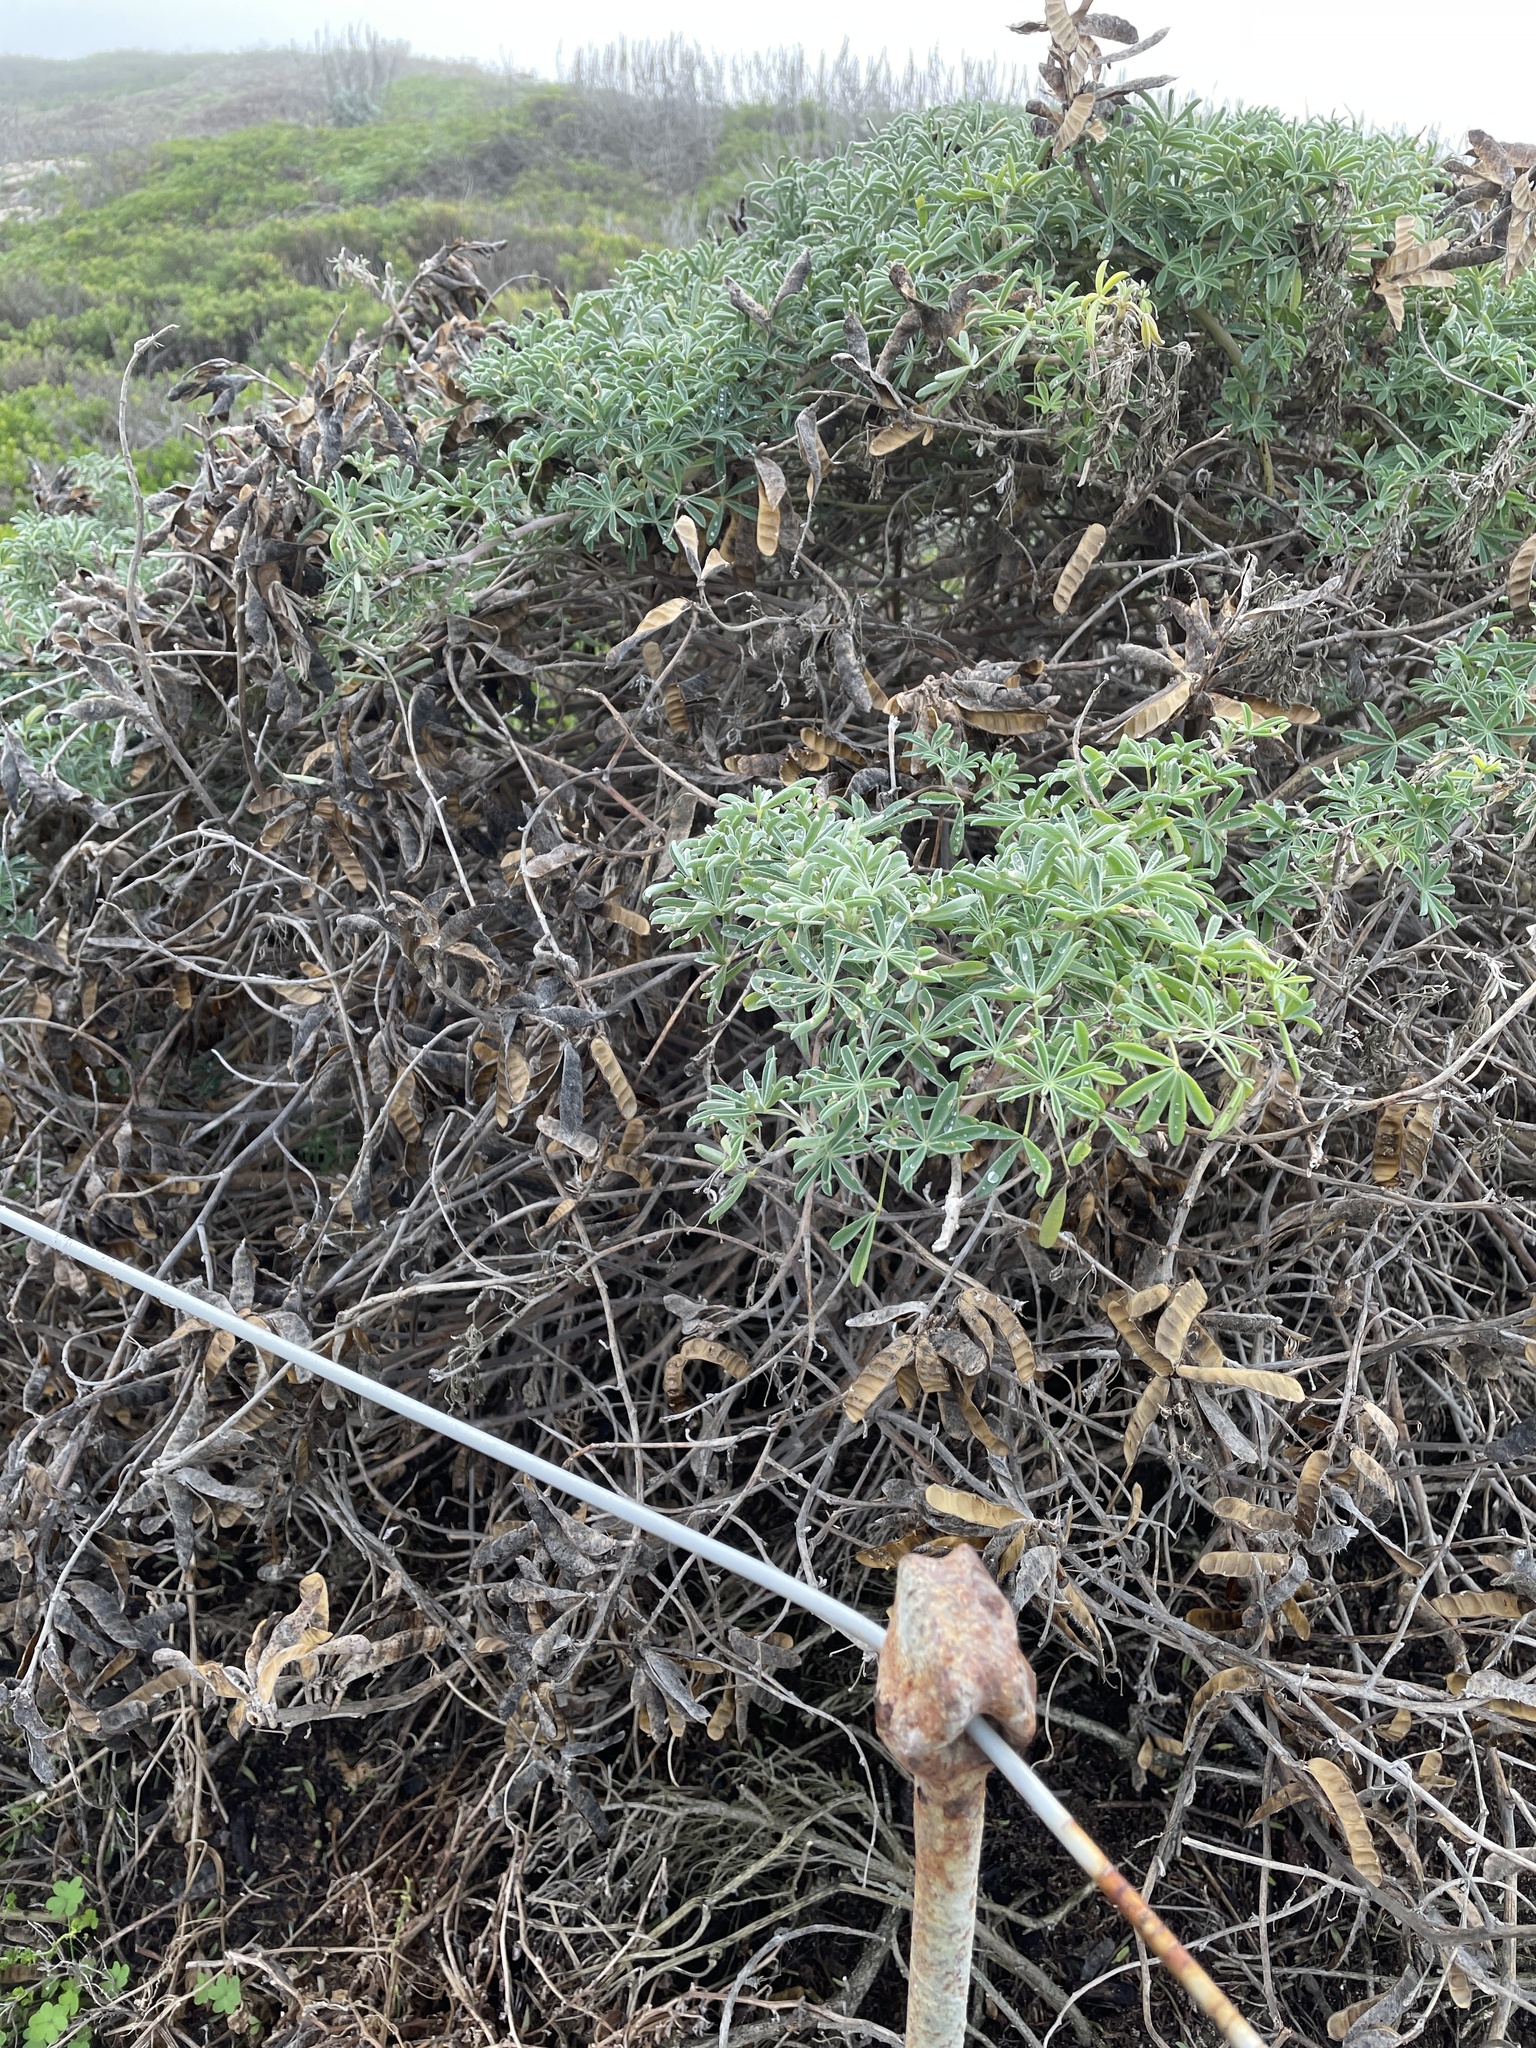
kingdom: Plantae
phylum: Tracheophyta
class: Magnoliopsida
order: Fabales
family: Fabaceae
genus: Lupinus
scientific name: Lupinus arboreus
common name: Yellow bush lupine
